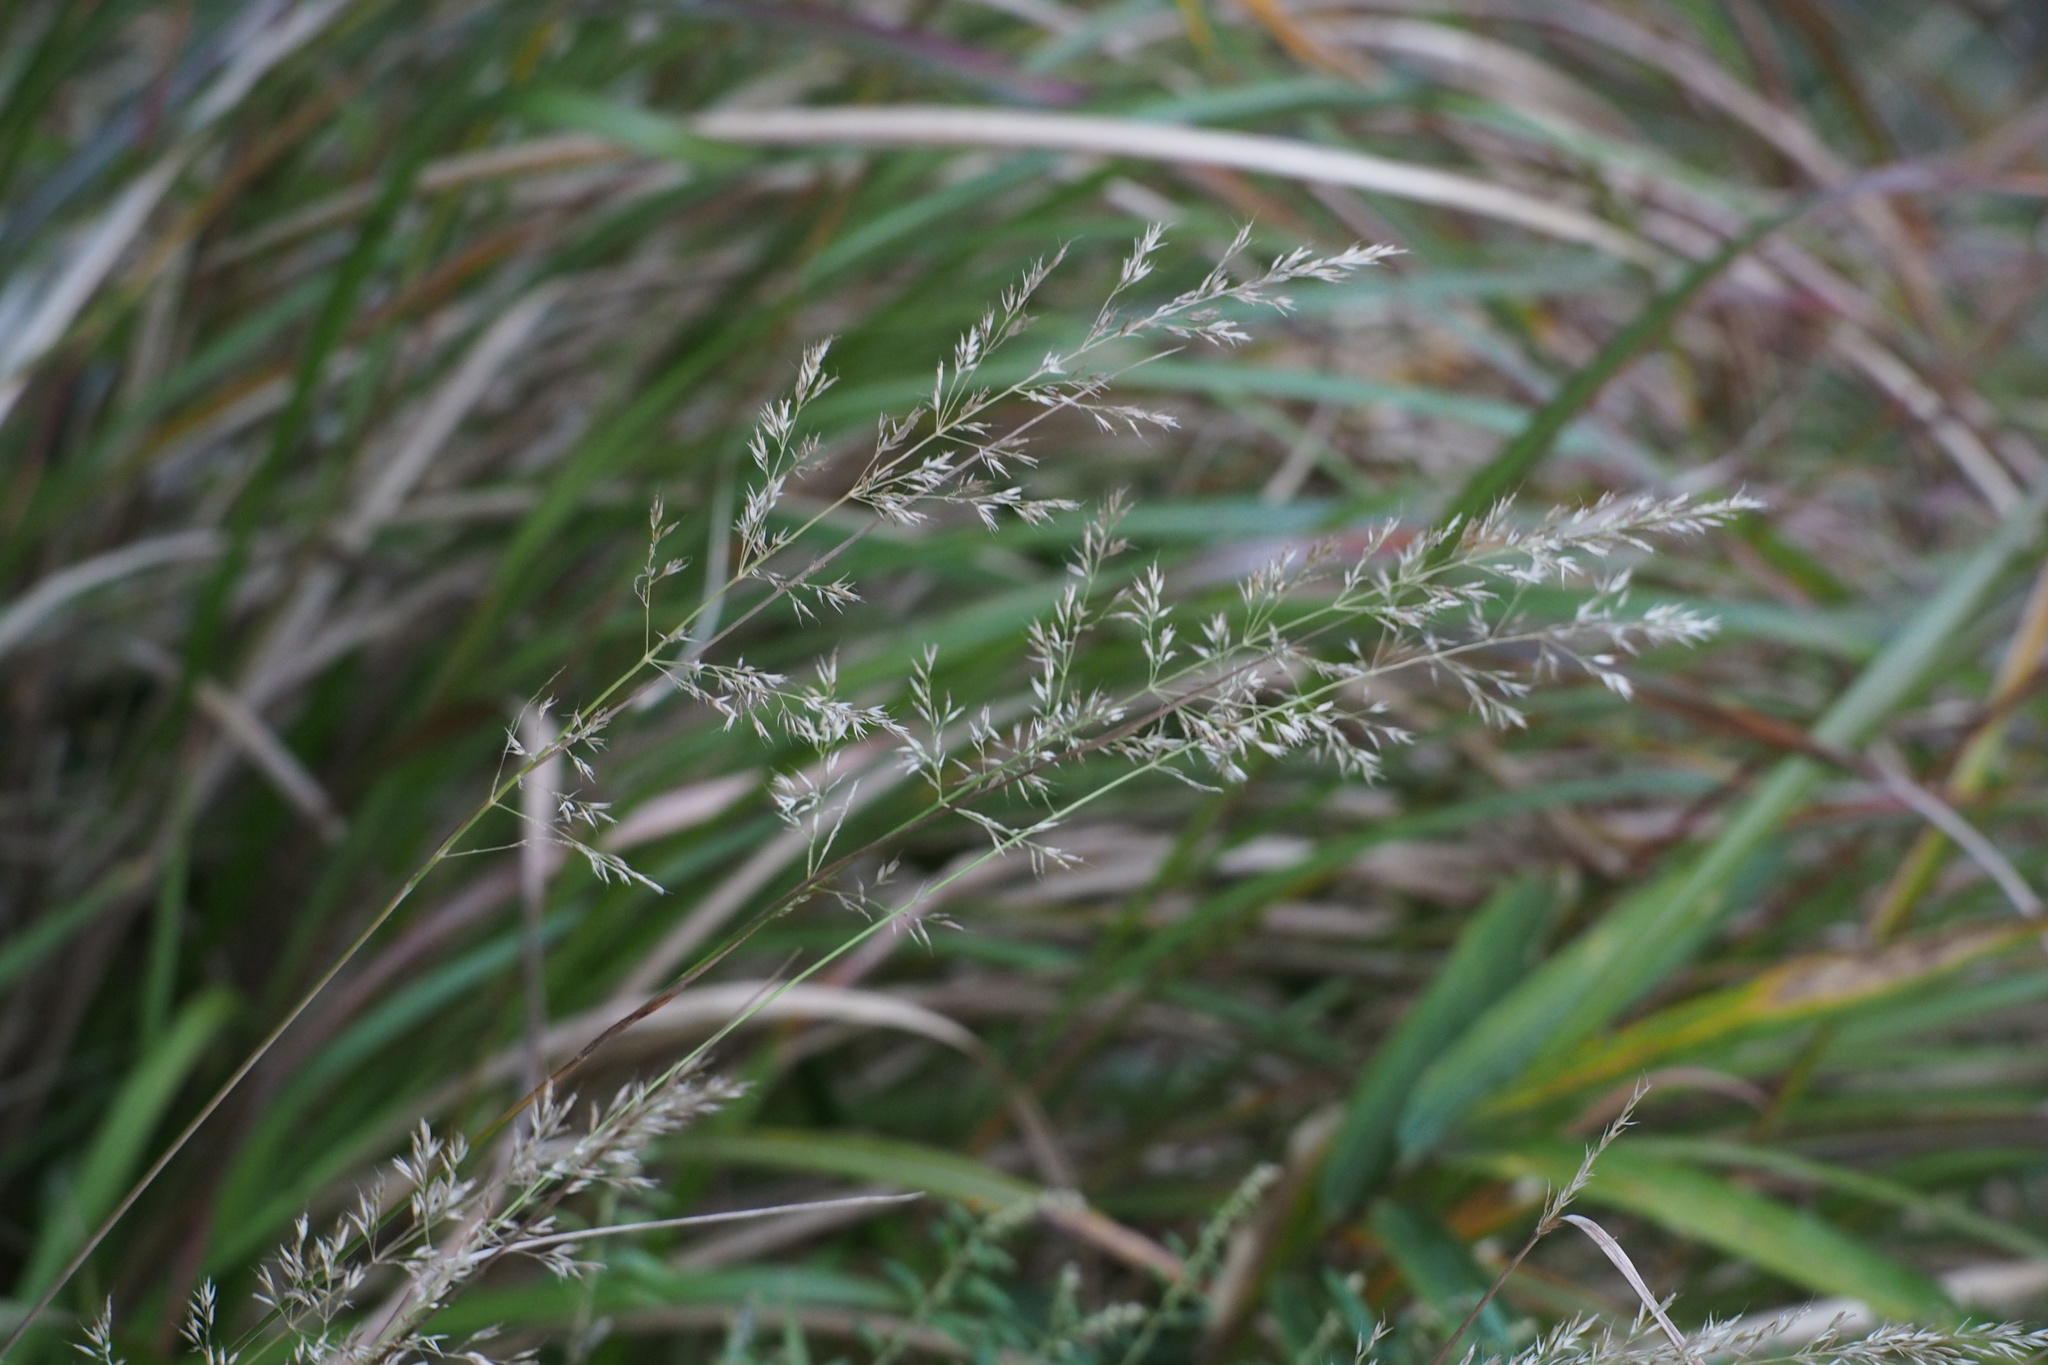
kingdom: Plantae
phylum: Tracheophyta
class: Liliopsida
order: Poales
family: Poaceae
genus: Calamagrostis
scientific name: Calamagrostis arundinacea
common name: Metskastik
